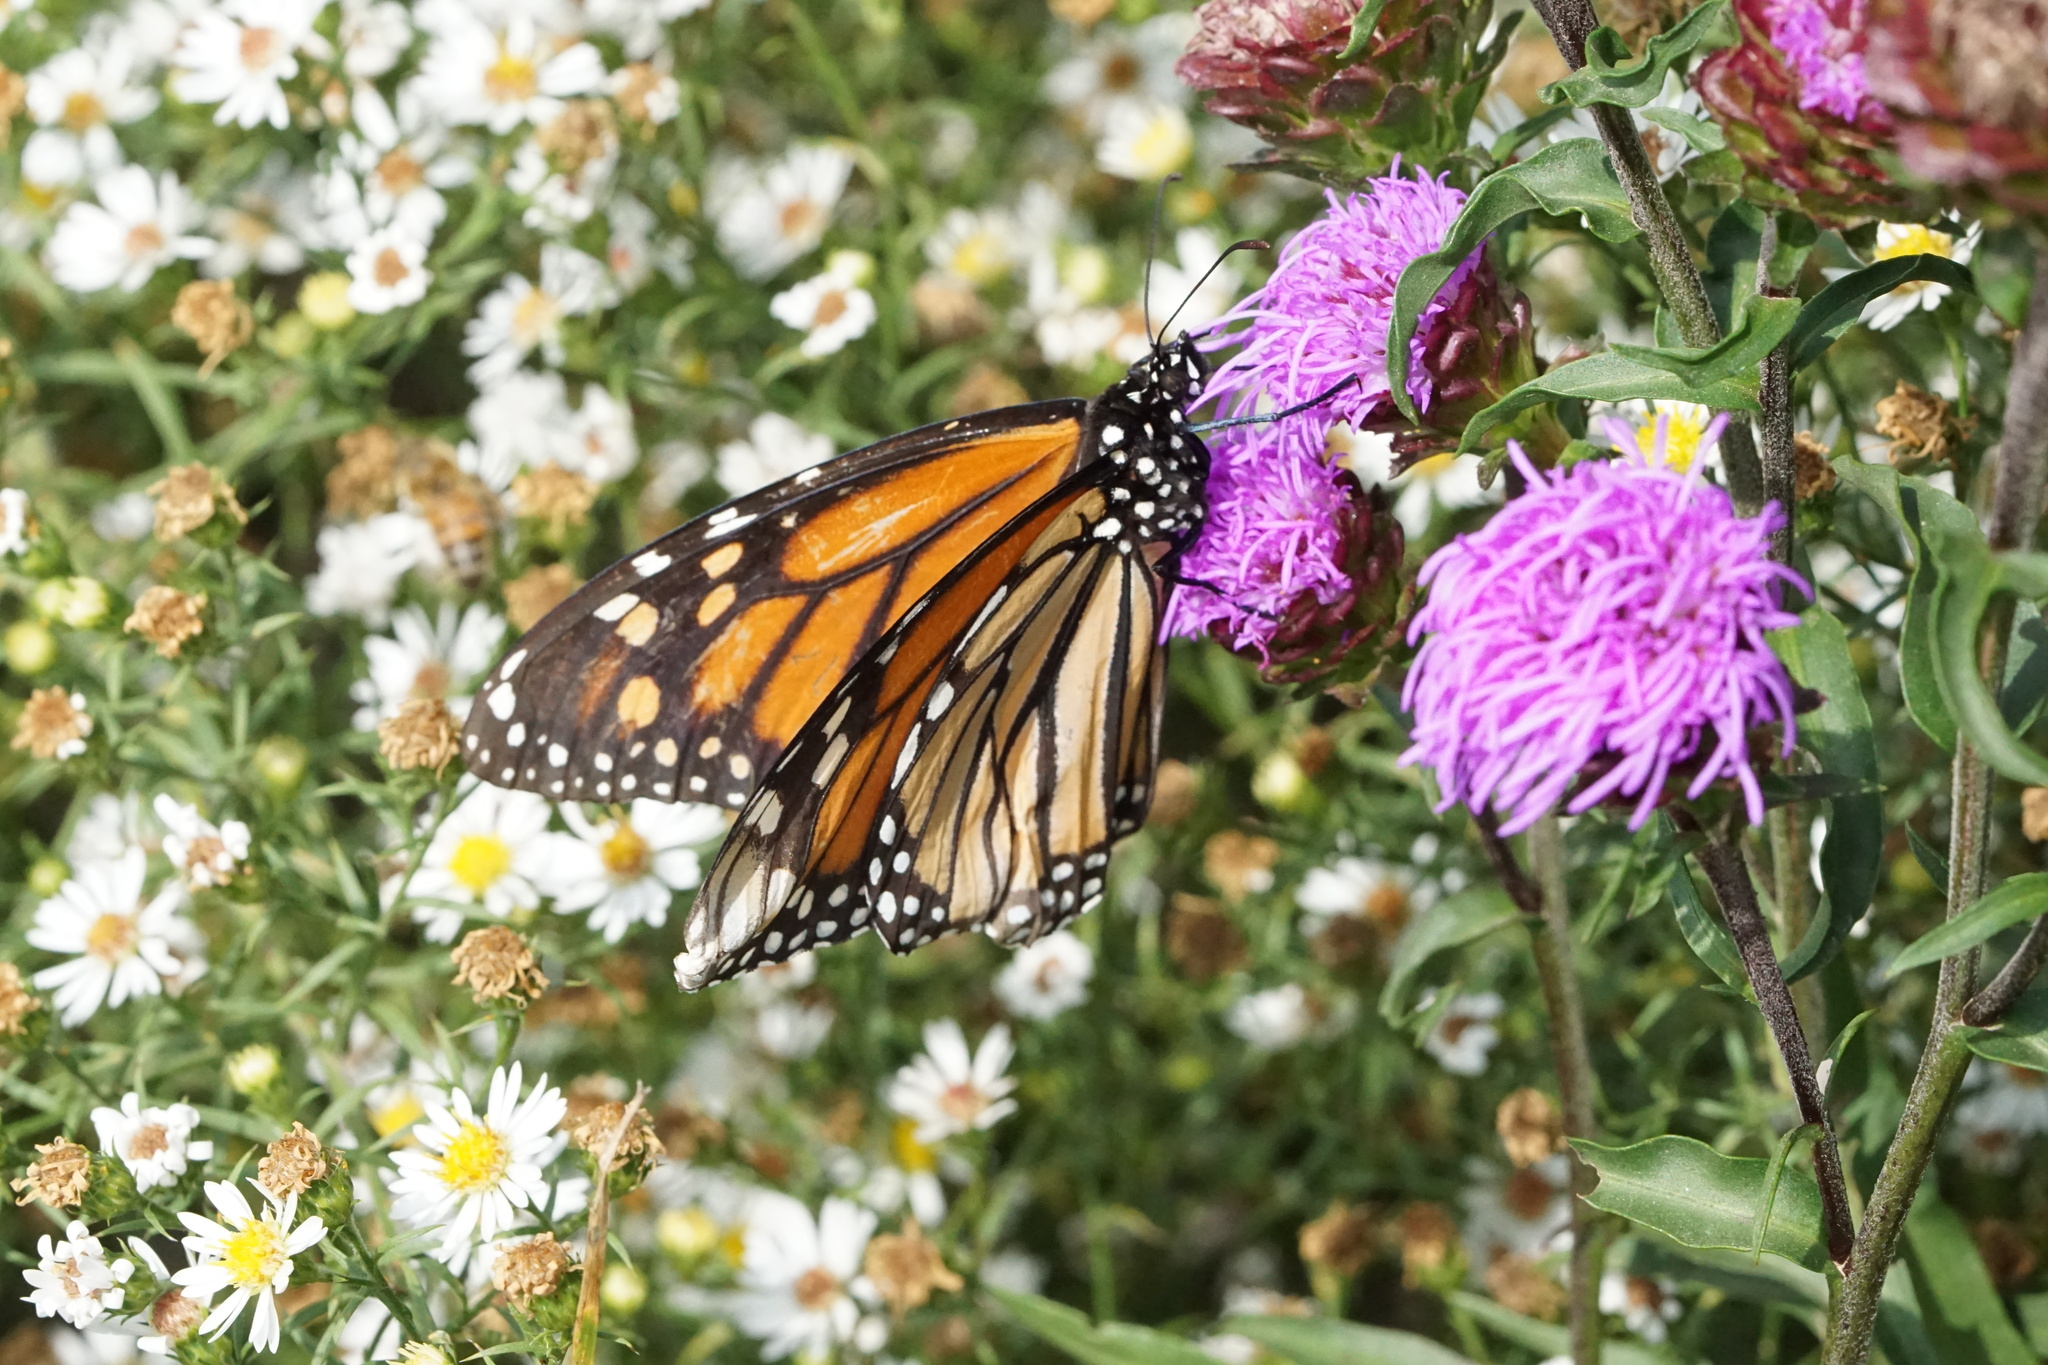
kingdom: Animalia
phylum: Arthropoda
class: Insecta
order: Lepidoptera
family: Nymphalidae
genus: Danaus
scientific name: Danaus plexippus
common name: Monarch
